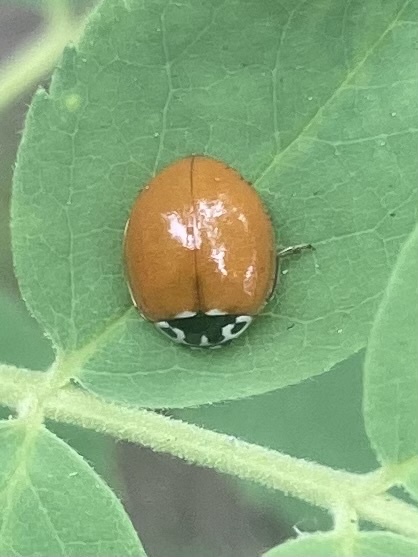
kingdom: Animalia
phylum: Arthropoda
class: Insecta
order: Coleoptera
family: Coccinellidae
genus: Cycloneda
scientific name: Cycloneda polita
